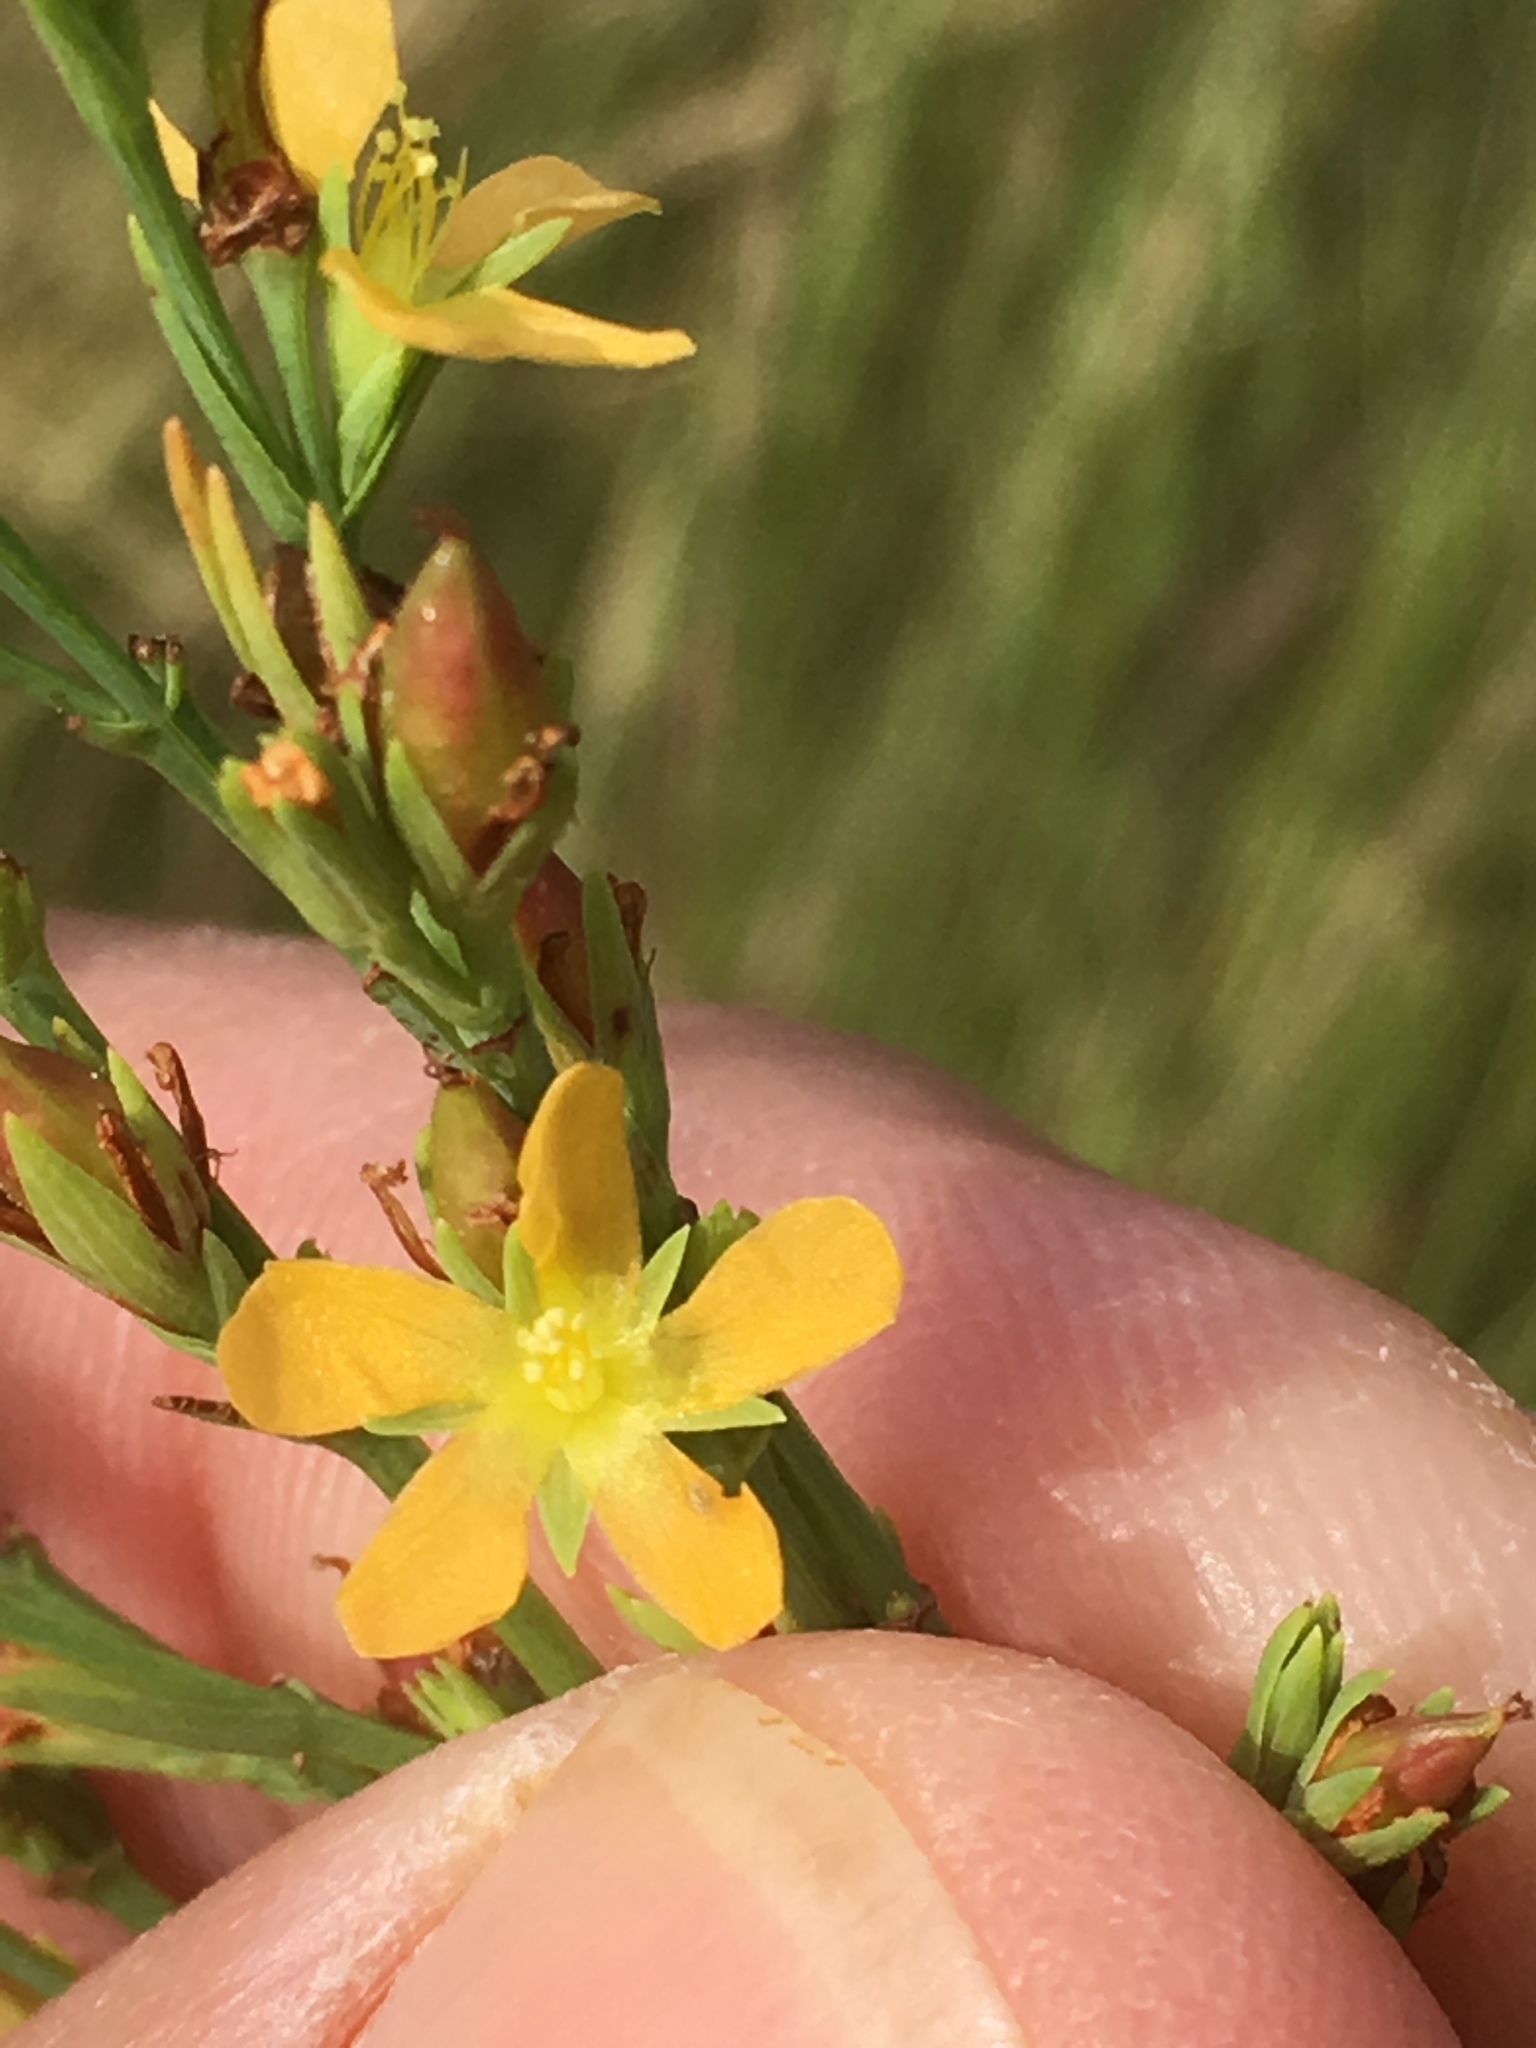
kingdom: Plantae
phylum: Tracheophyta
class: Magnoliopsida
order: Malpighiales
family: Hypericaceae
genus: Hypericum
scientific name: Hypericum drummondii
